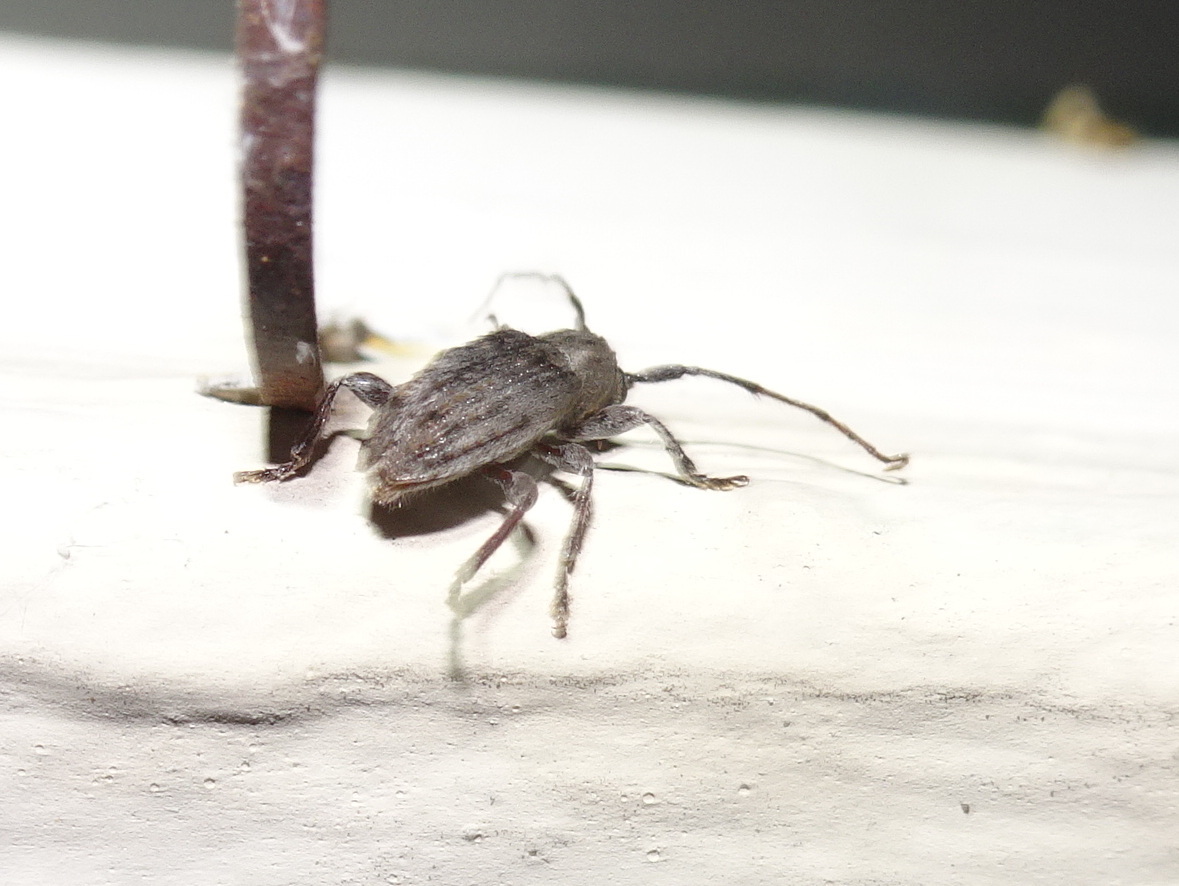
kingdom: Animalia
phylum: Arthropoda
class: Insecta
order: Coleoptera
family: Cerambycidae
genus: Ecyrus
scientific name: Ecyrus dasycerus
